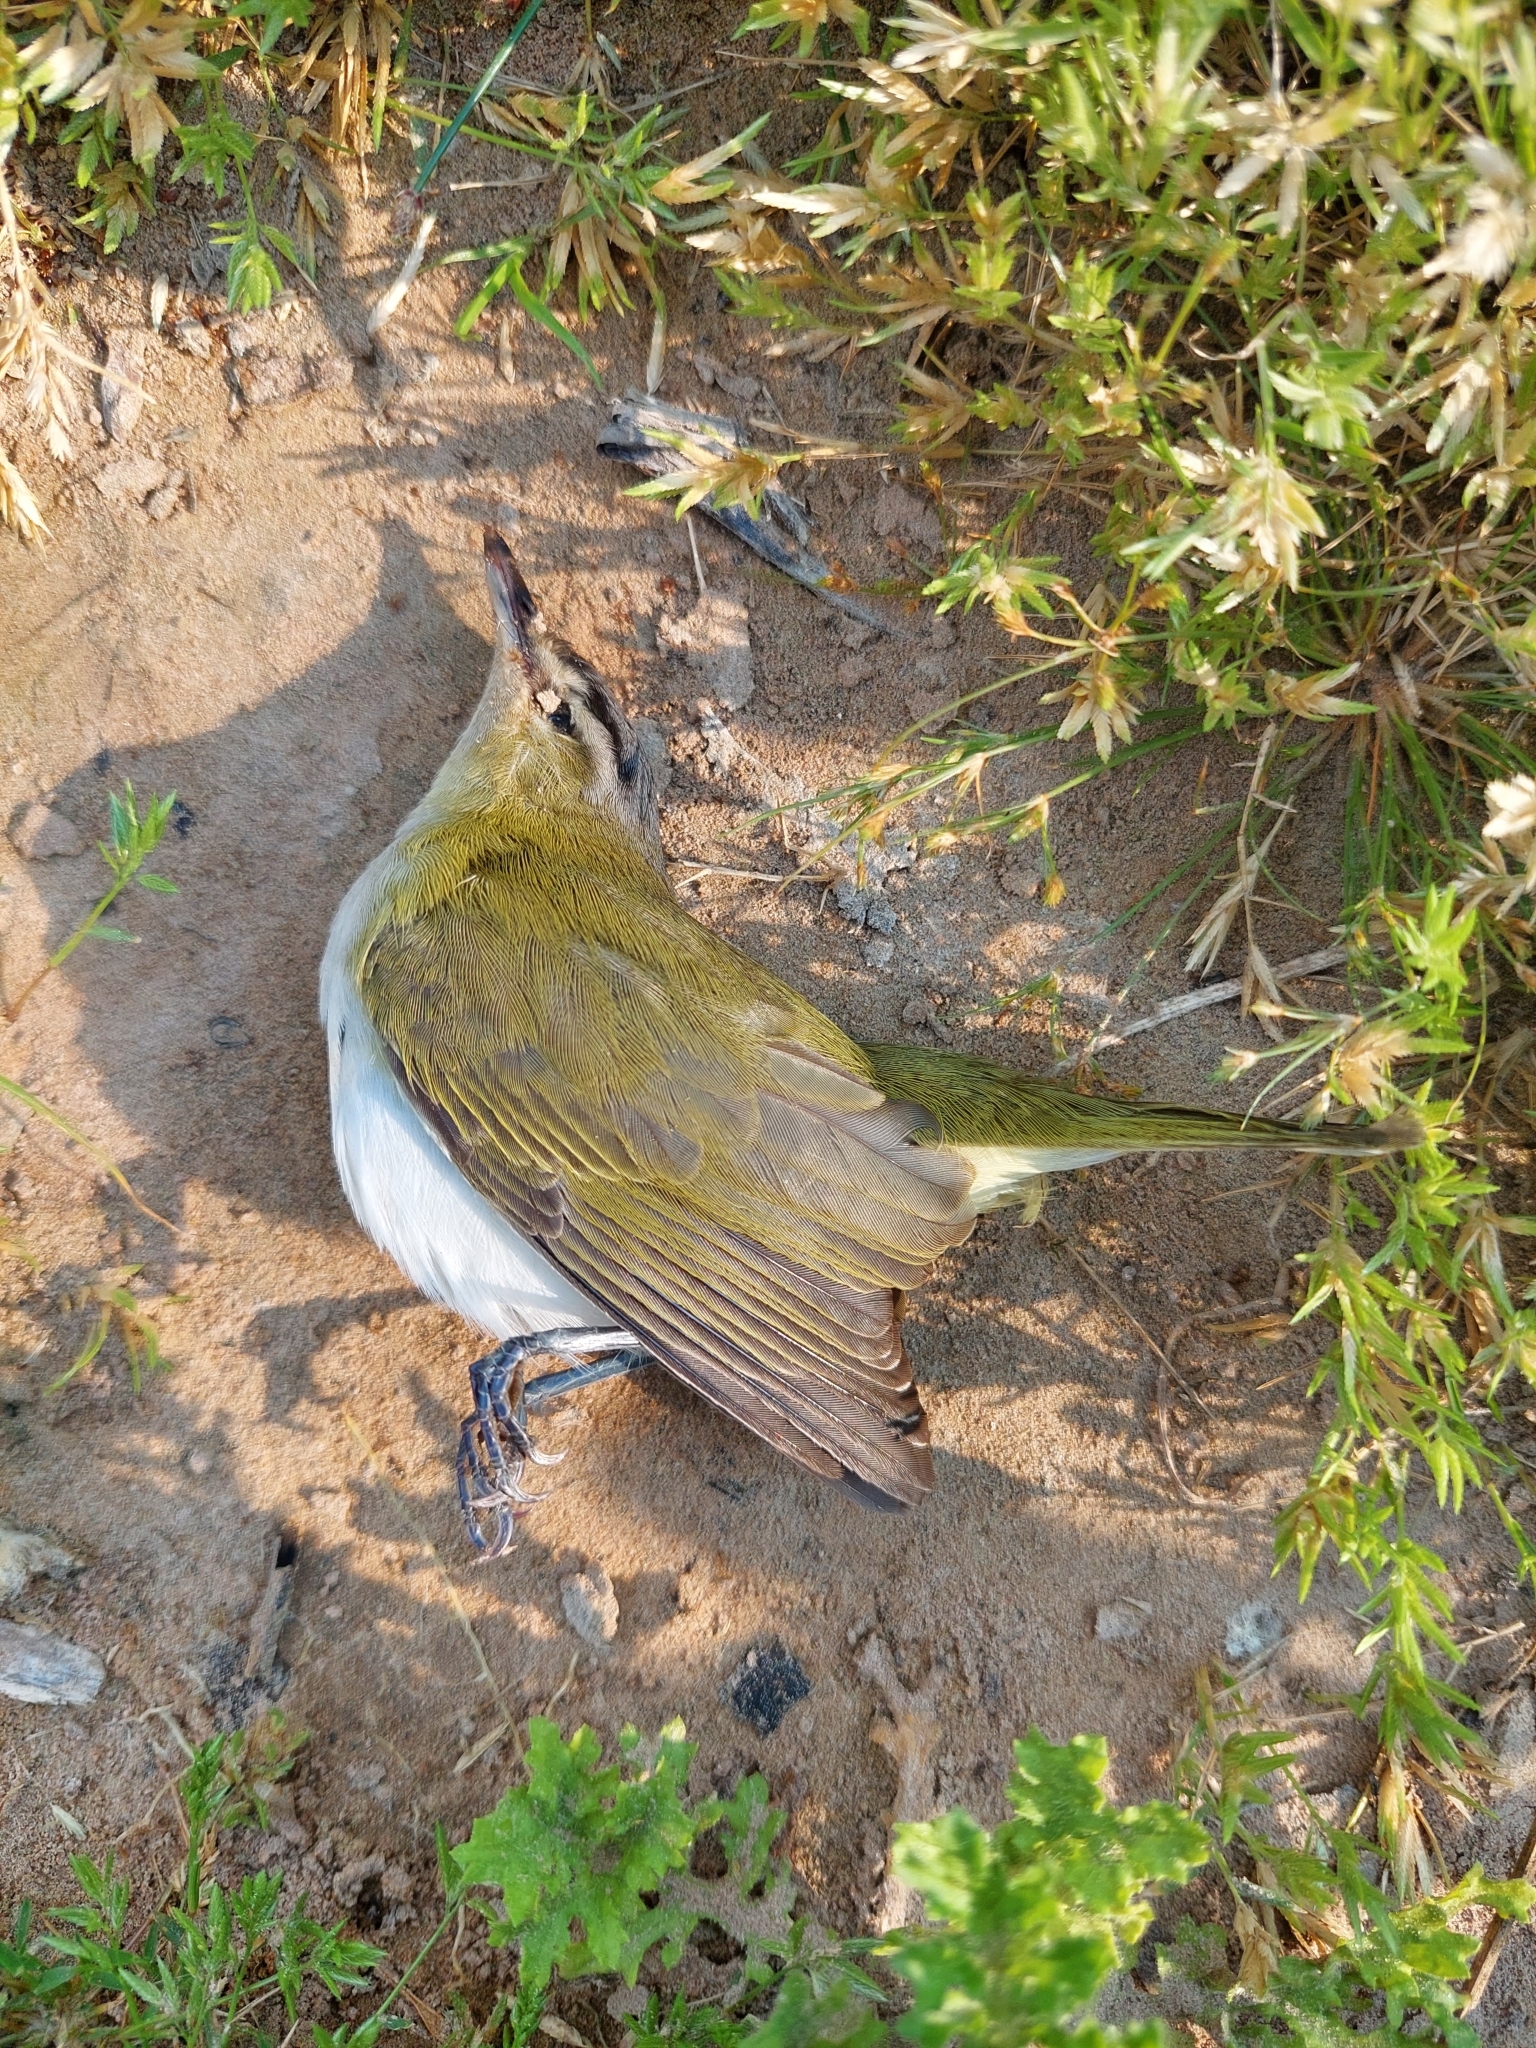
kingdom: Animalia
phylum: Chordata
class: Aves
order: Passeriformes
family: Vireonidae
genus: Vireo
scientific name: Vireo olivaceus
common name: Red-eyed vireo
